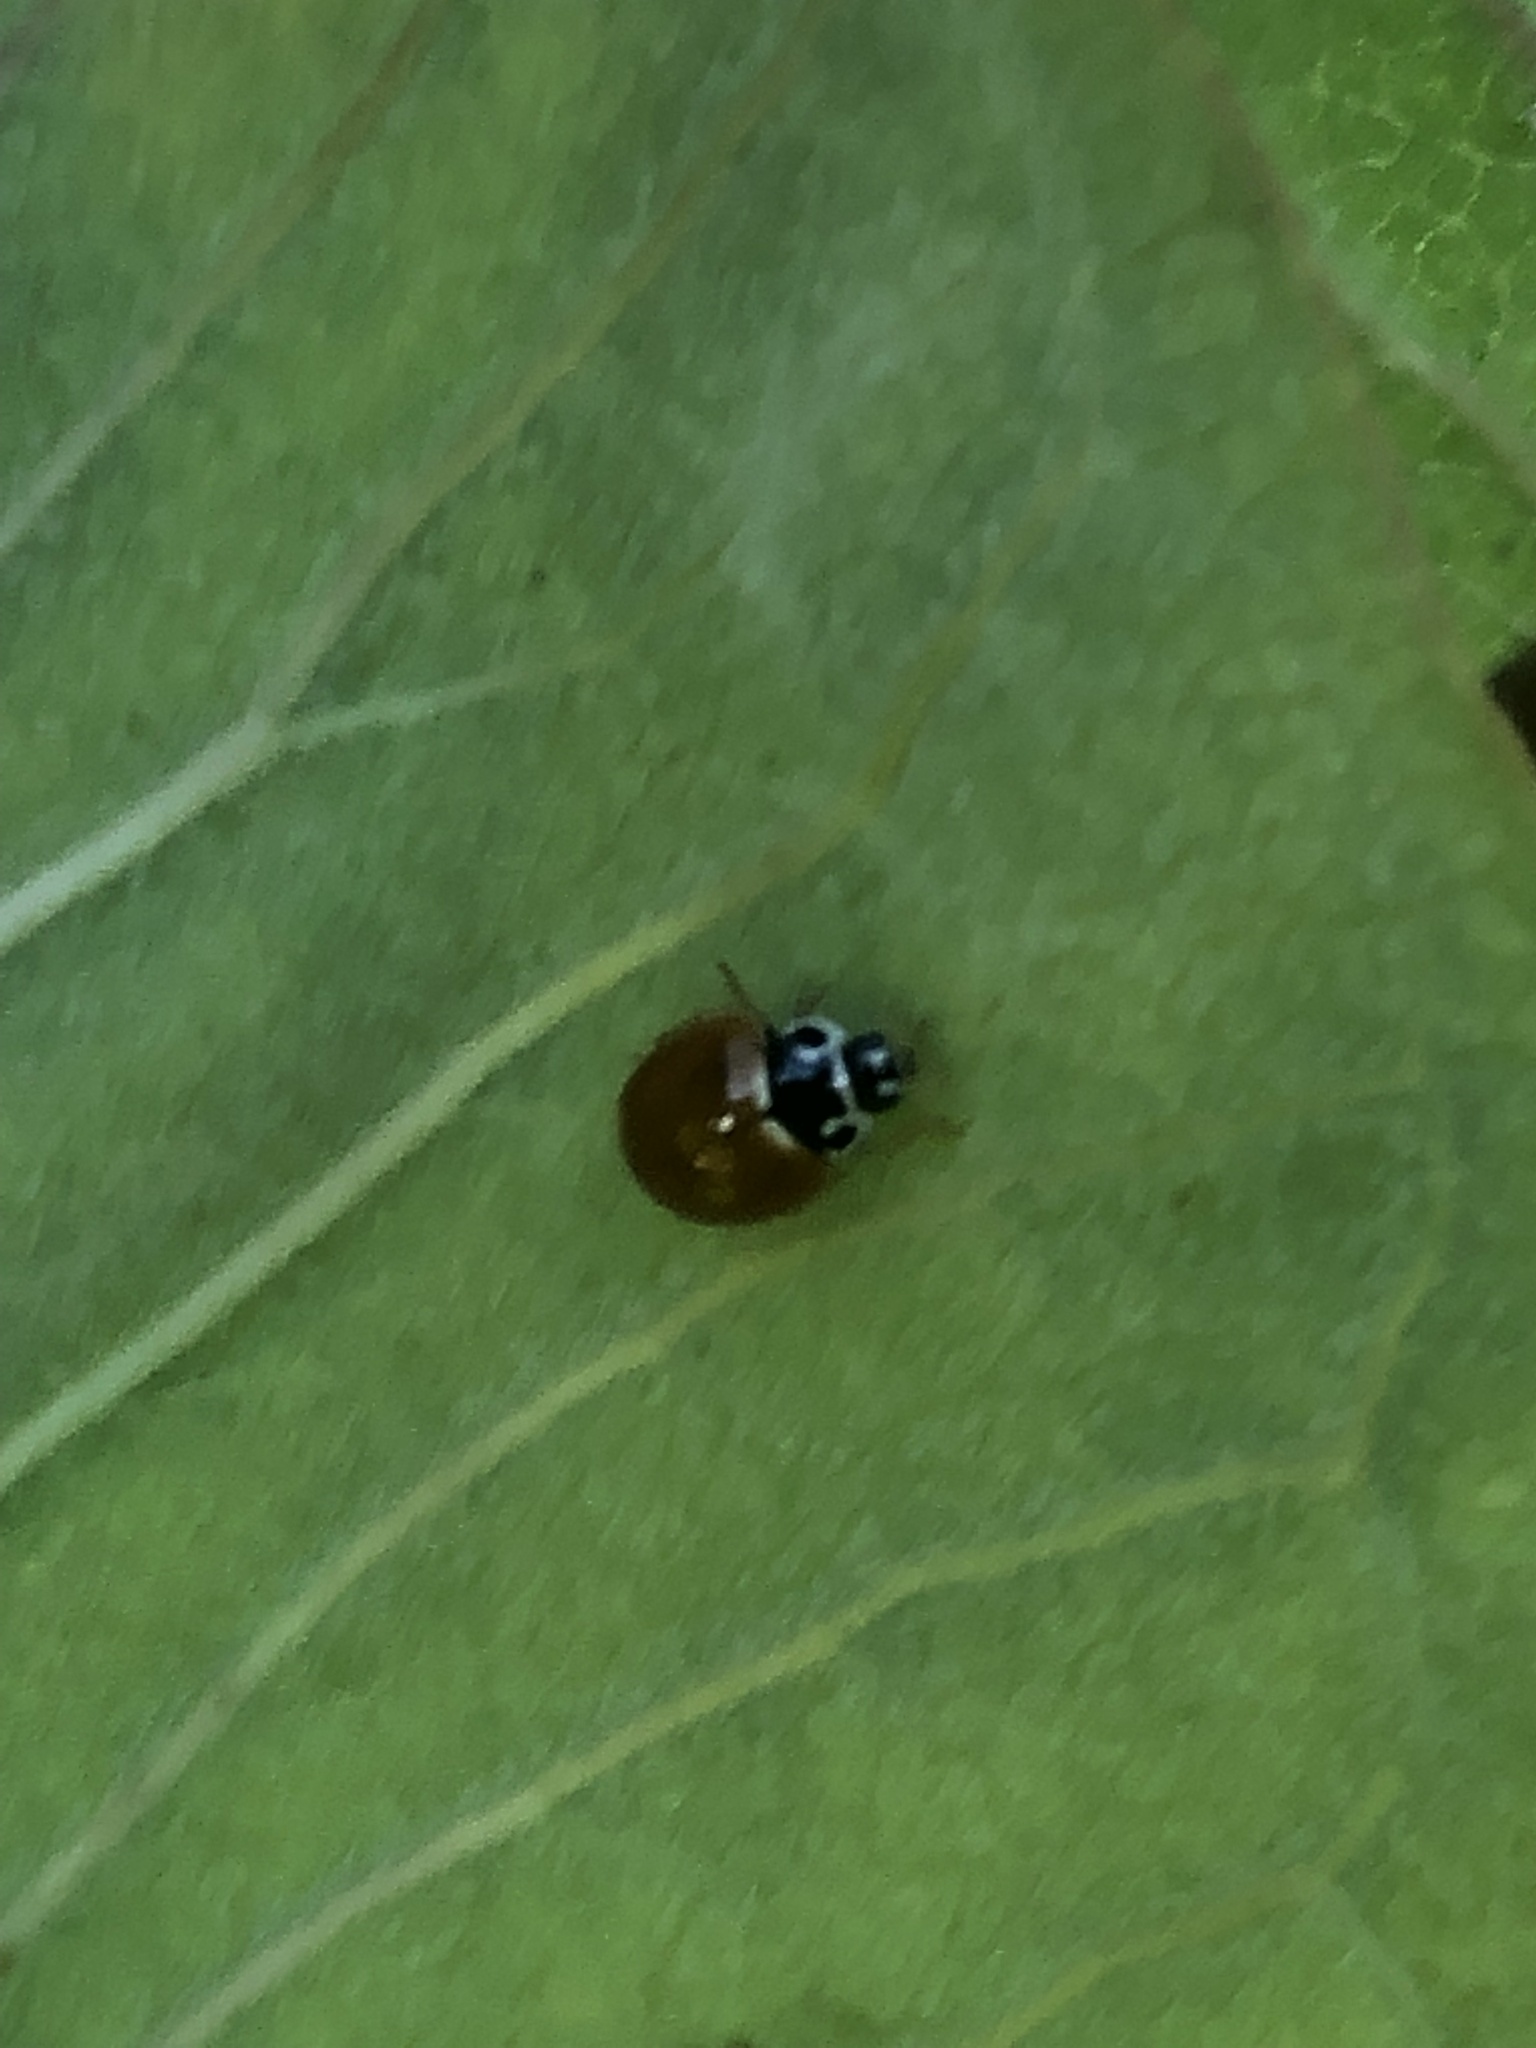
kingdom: Animalia
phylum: Arthropoda
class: Insecta
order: Coleoptera
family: Coccinellidae
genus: Cycloneda
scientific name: Cycloneda munda
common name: Polished lady beetle
